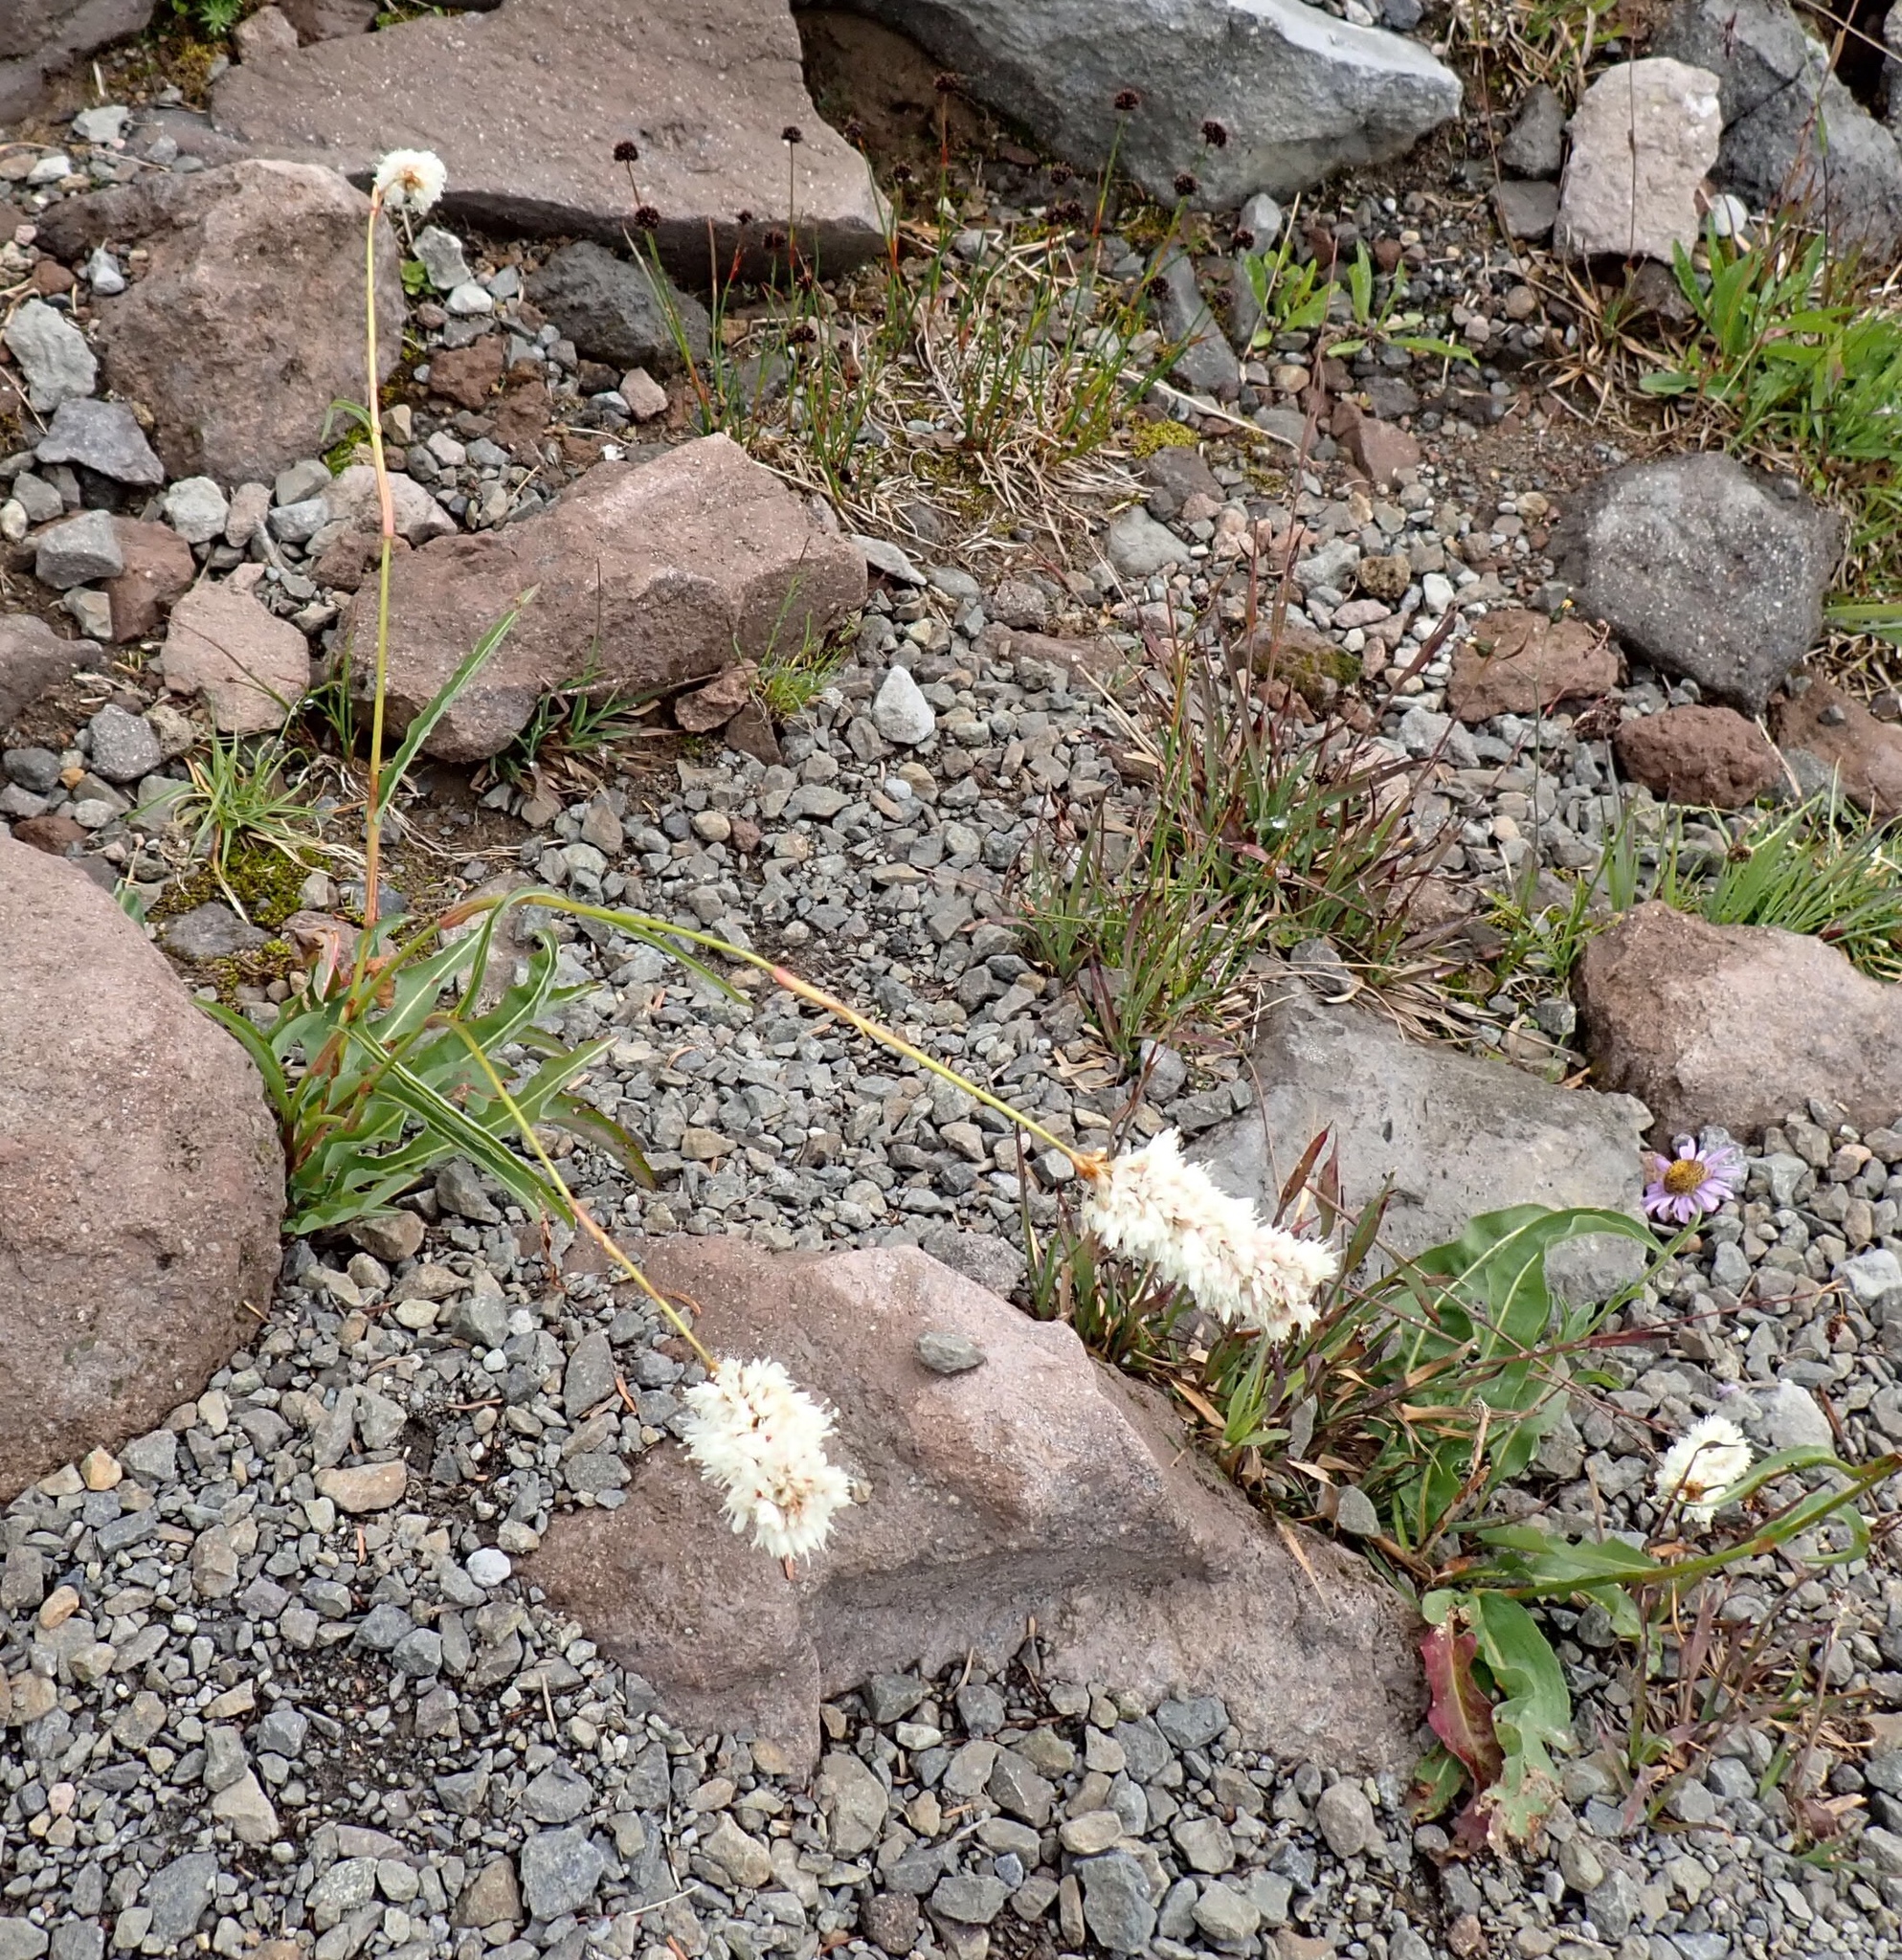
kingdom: Plantae
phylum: Tracheophyta
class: Magnoliopsida
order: Caryophyllales
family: Polygonaceae
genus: Bistorta
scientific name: Bistorta bistortoides
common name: American bistort
